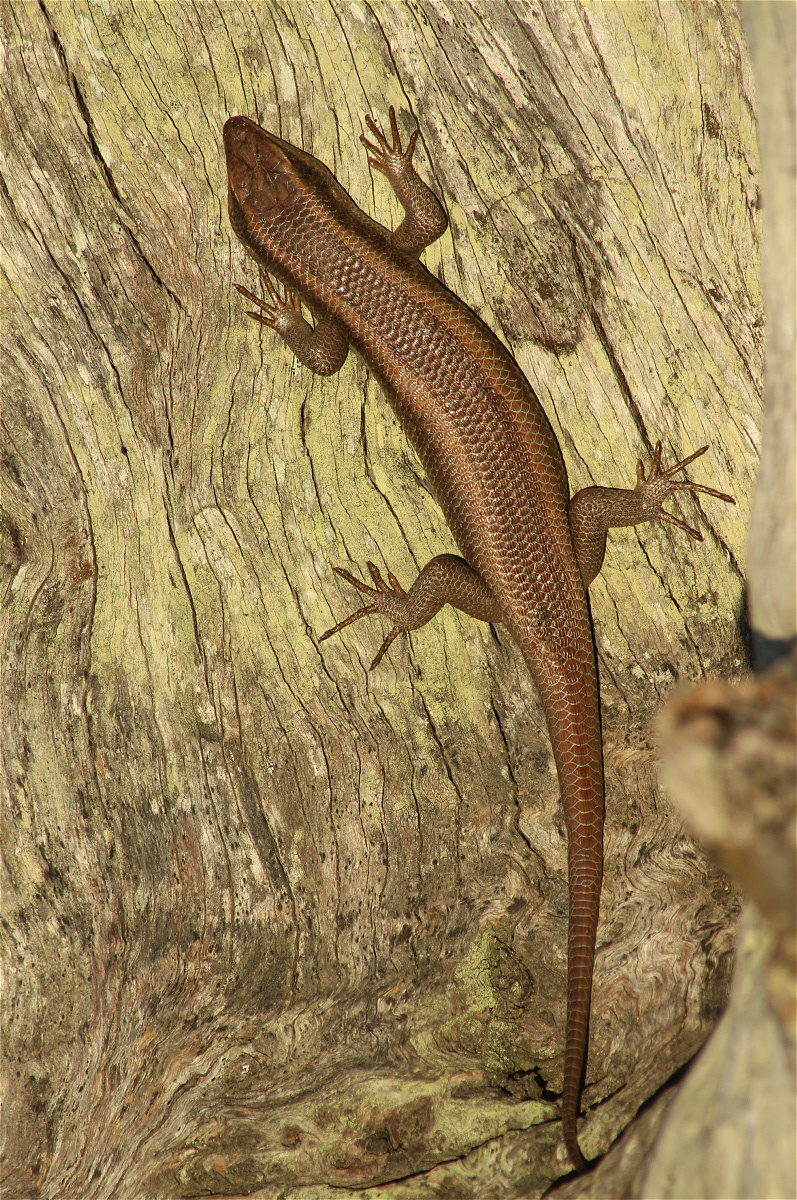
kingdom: Animalia
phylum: Chordata
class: Squamata
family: Scincidae
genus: Trachylepis
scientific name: Trachylepis striata
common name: African striped mabuya
